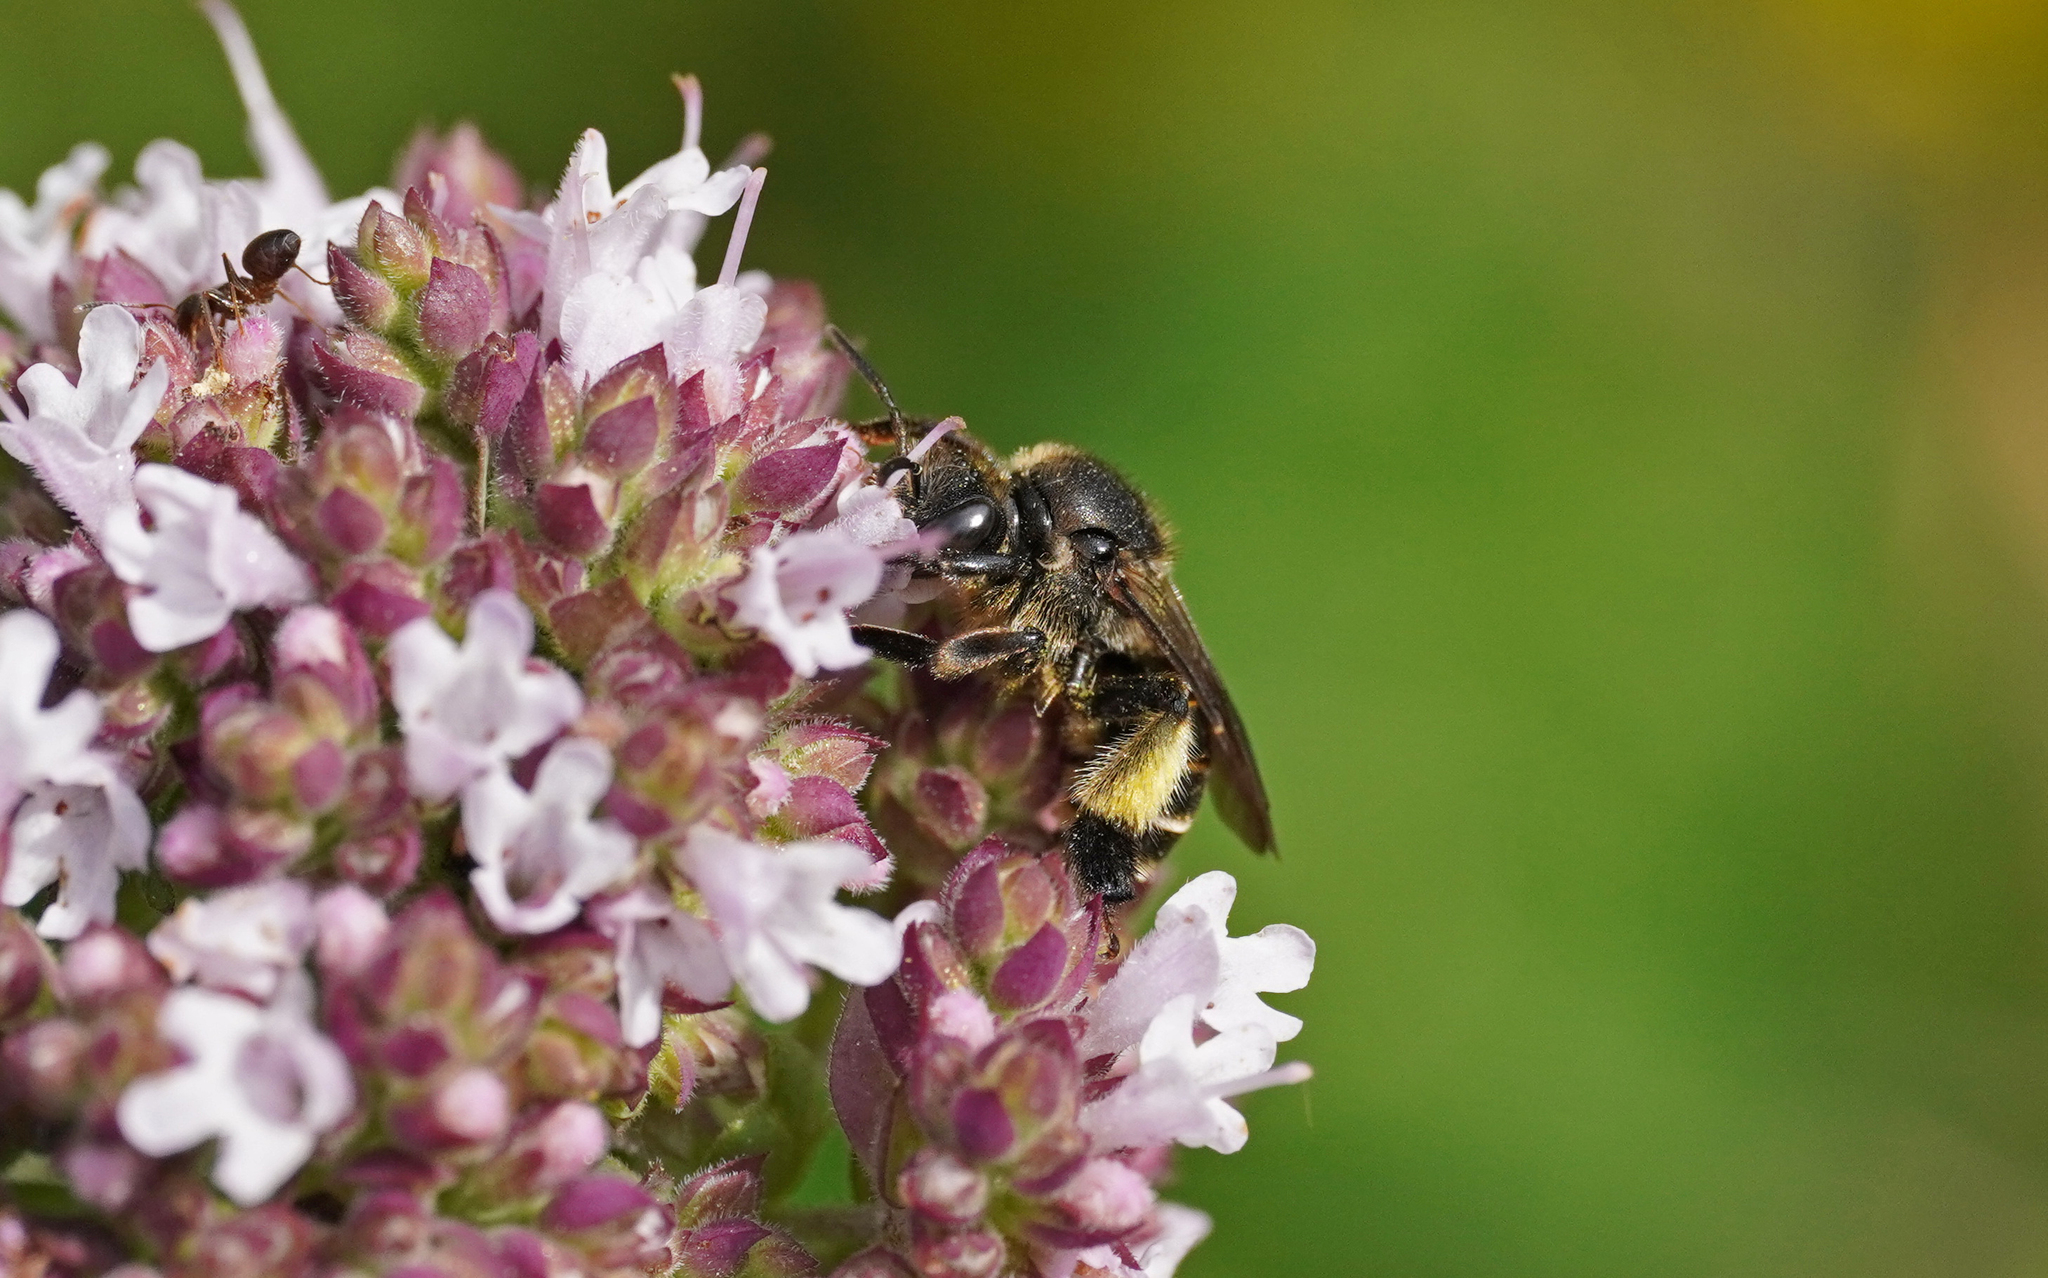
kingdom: Animalia
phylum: Arthropoda
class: Insecta
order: Hymenoptera
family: Melittidae
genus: Macropis
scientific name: Macropis europaea
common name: Yellow loosestrife bee
